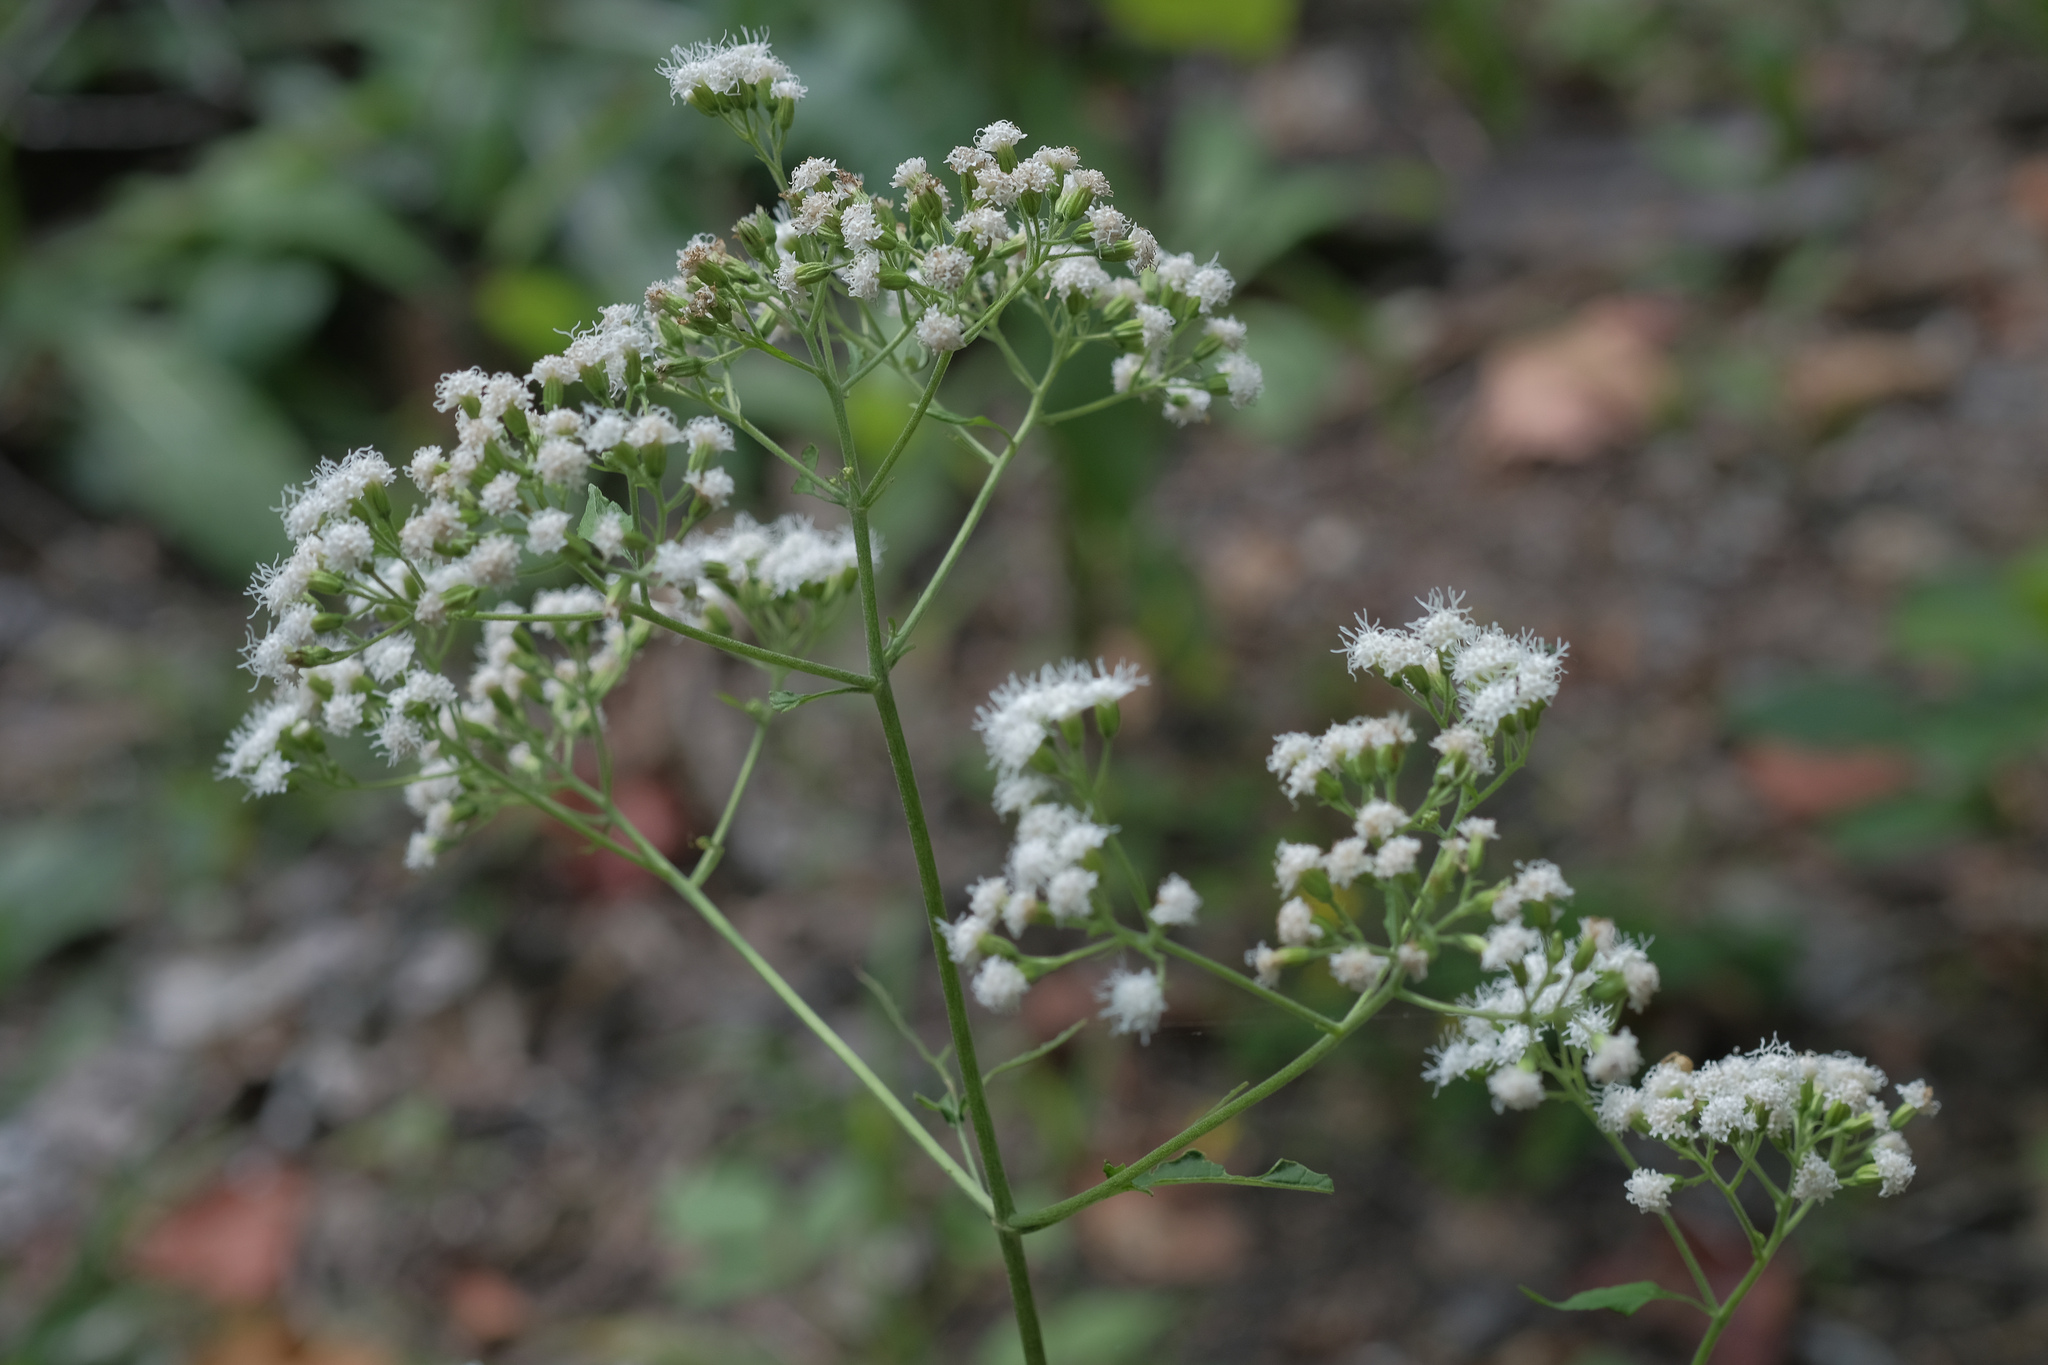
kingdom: Plantae
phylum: Tracheophyta
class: Magnoliopsida
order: Asterales
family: Asteraceae
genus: Ageratina
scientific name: Ageratina altissima
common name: White snakeroot
